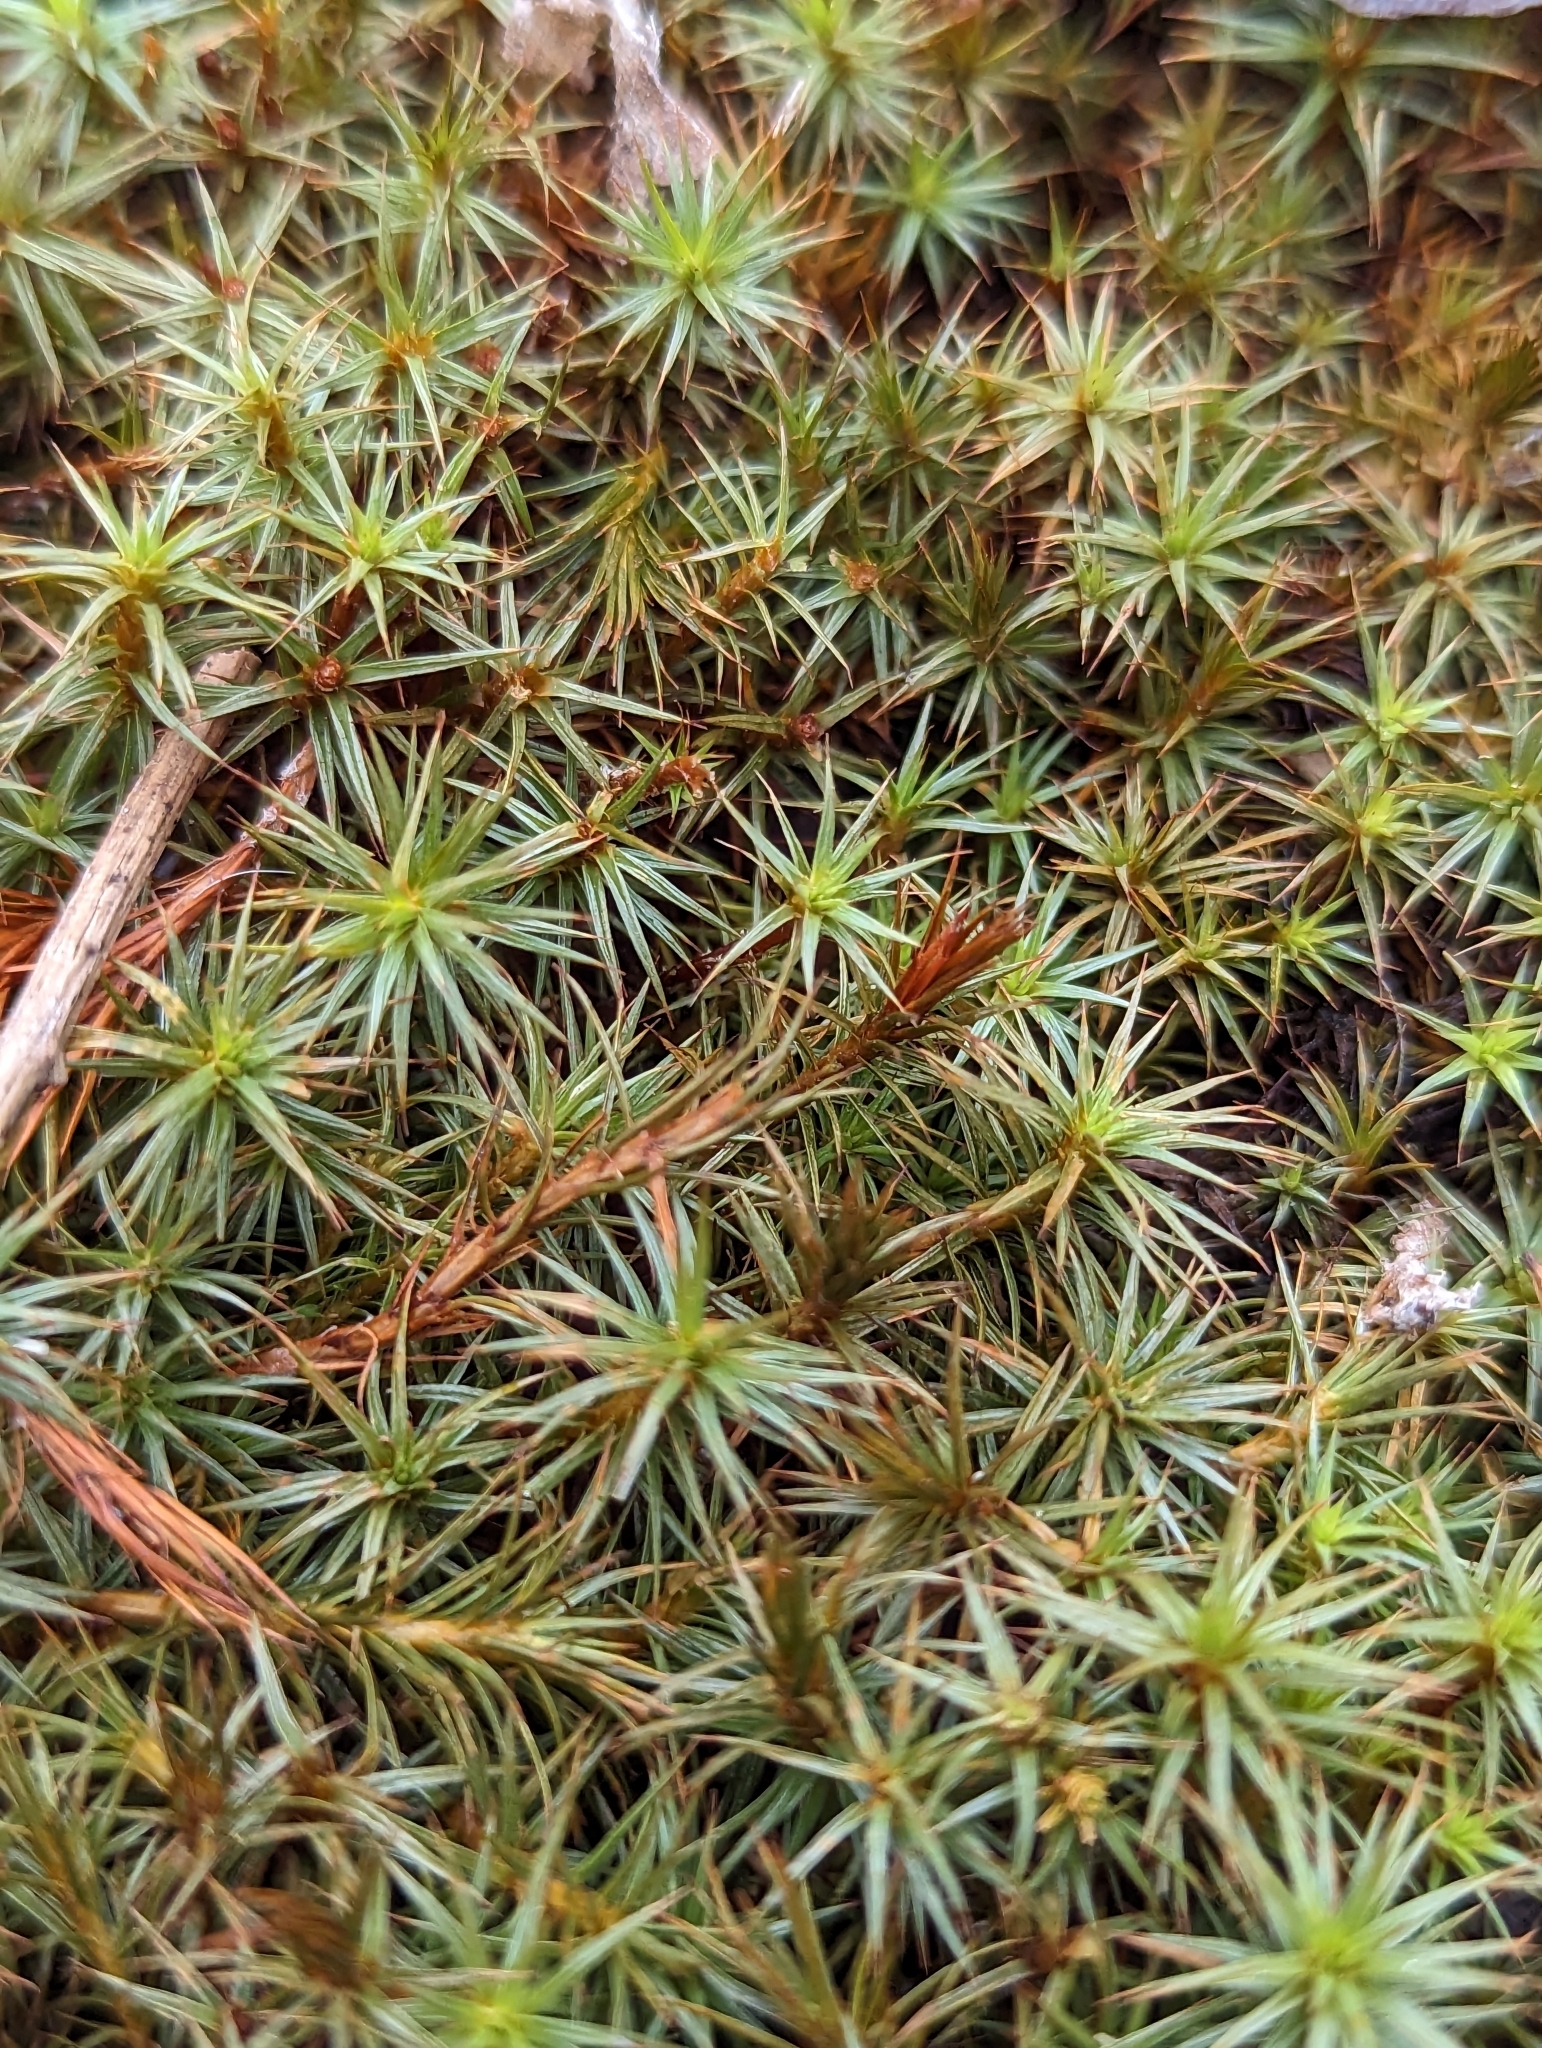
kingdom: Plantae
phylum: Bryophyta
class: Polytrichopsida
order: Polytrichales
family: Polytrichaceae
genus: Polytrichum
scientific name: Polytrichum juniperinum
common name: Juniper haircap moss
